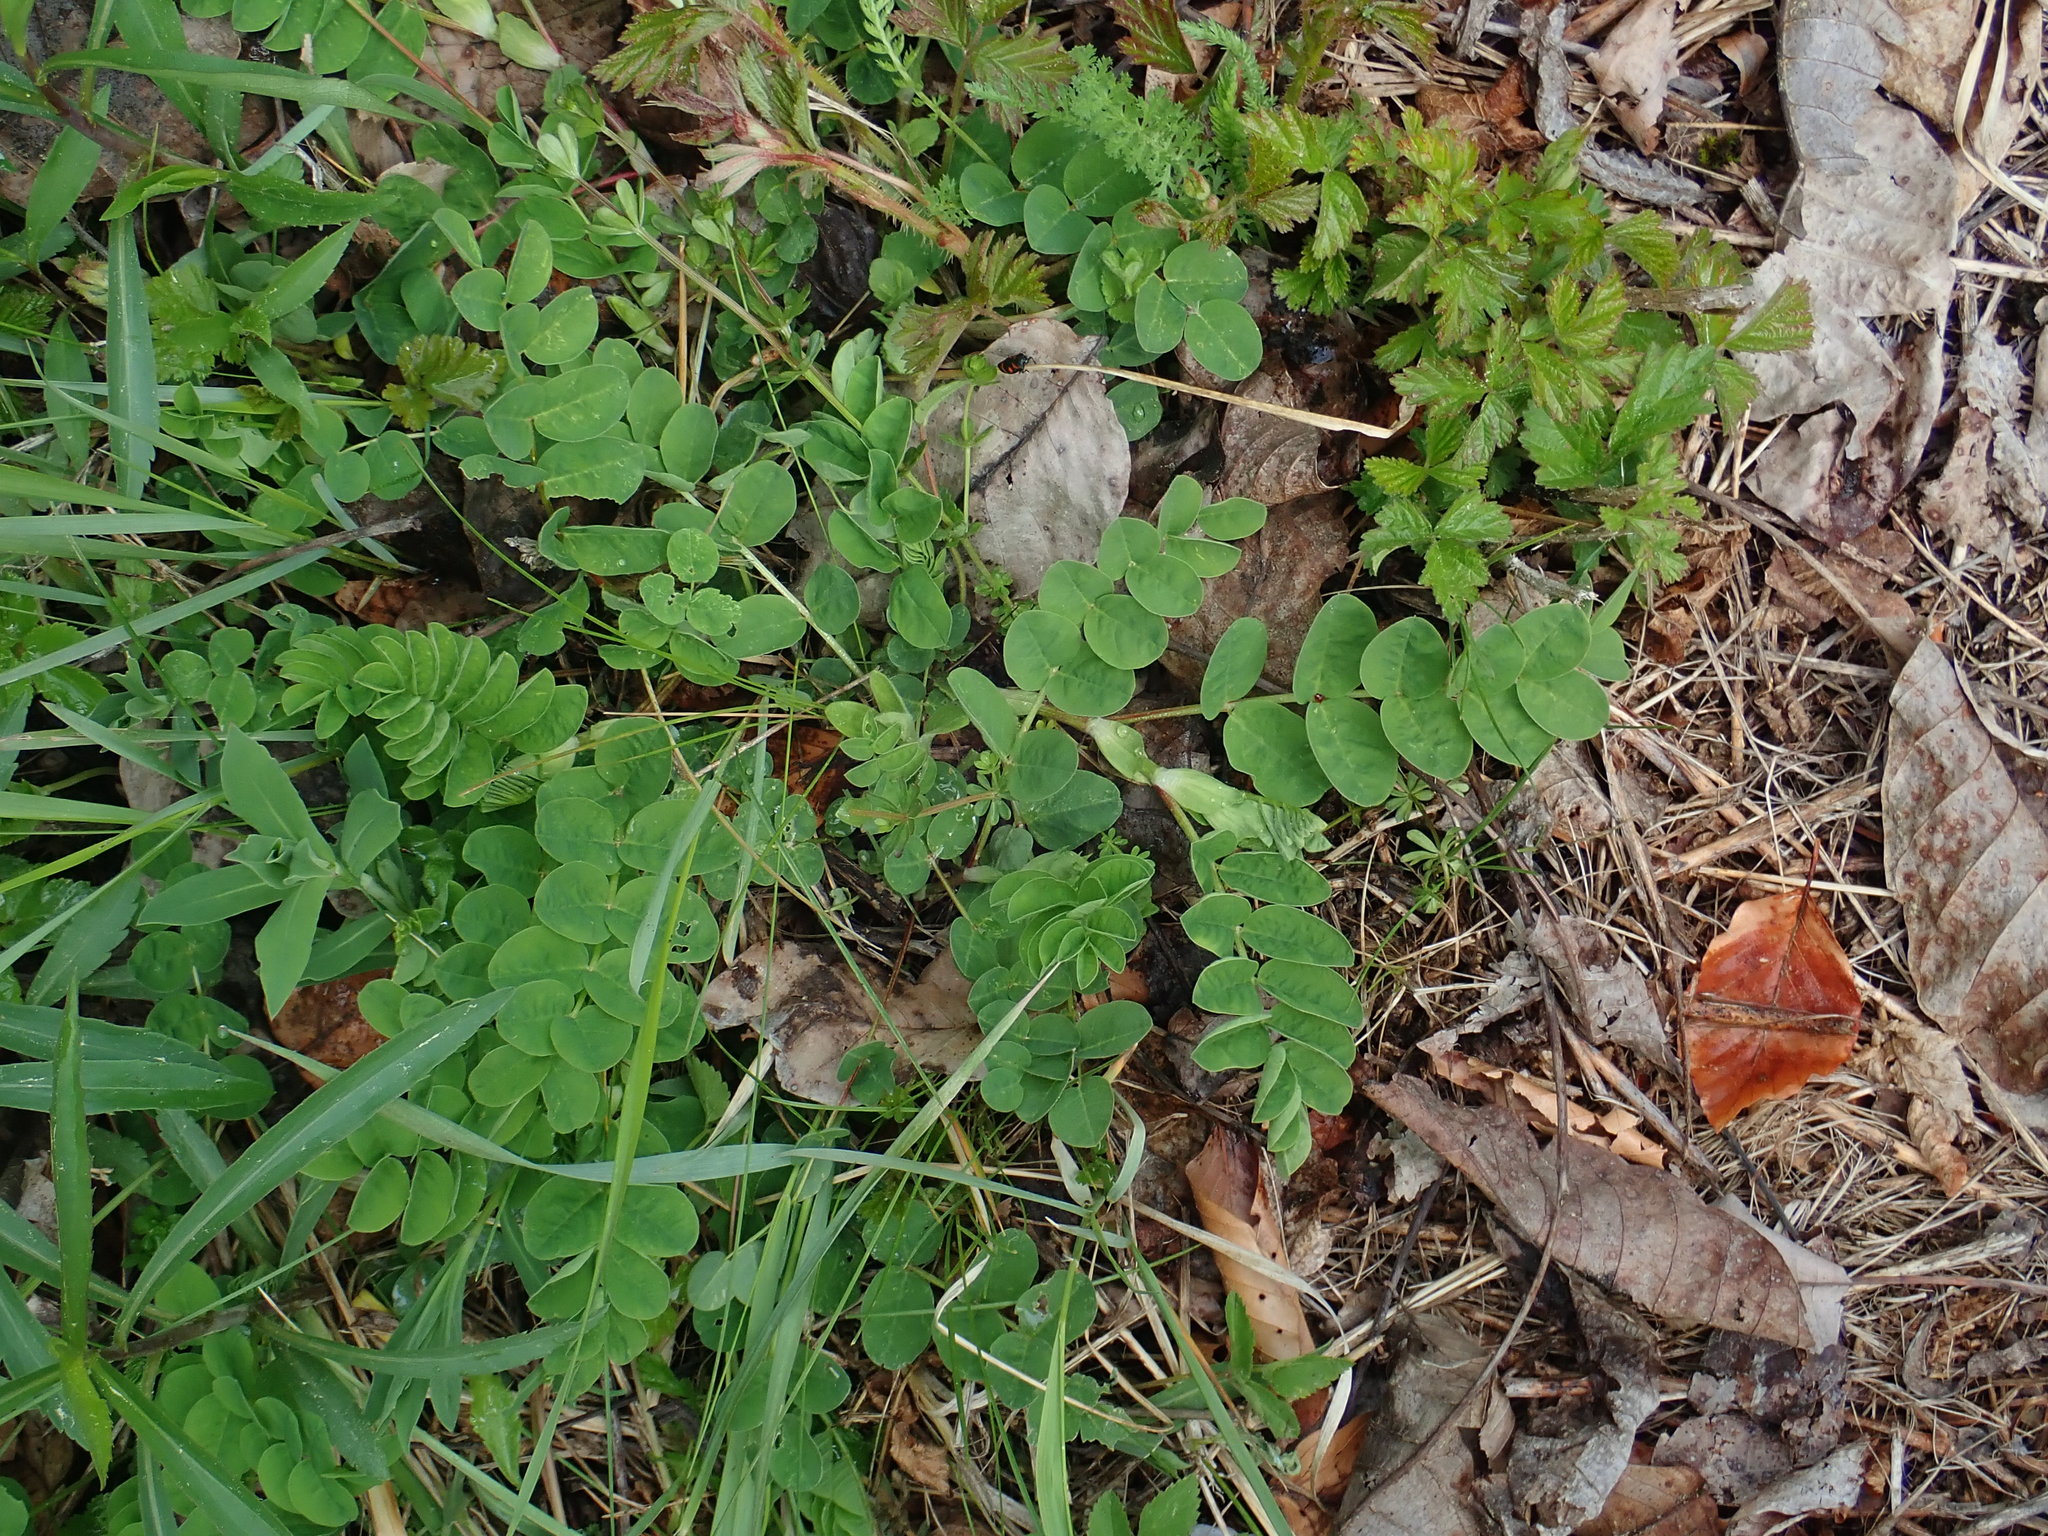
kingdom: Plantae
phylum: Tracheophyta
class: Magnoliopsida
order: Fabales
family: Fabaceae
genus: Astragalus
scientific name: Astragalus glycyphyllos
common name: Wild liquorice
